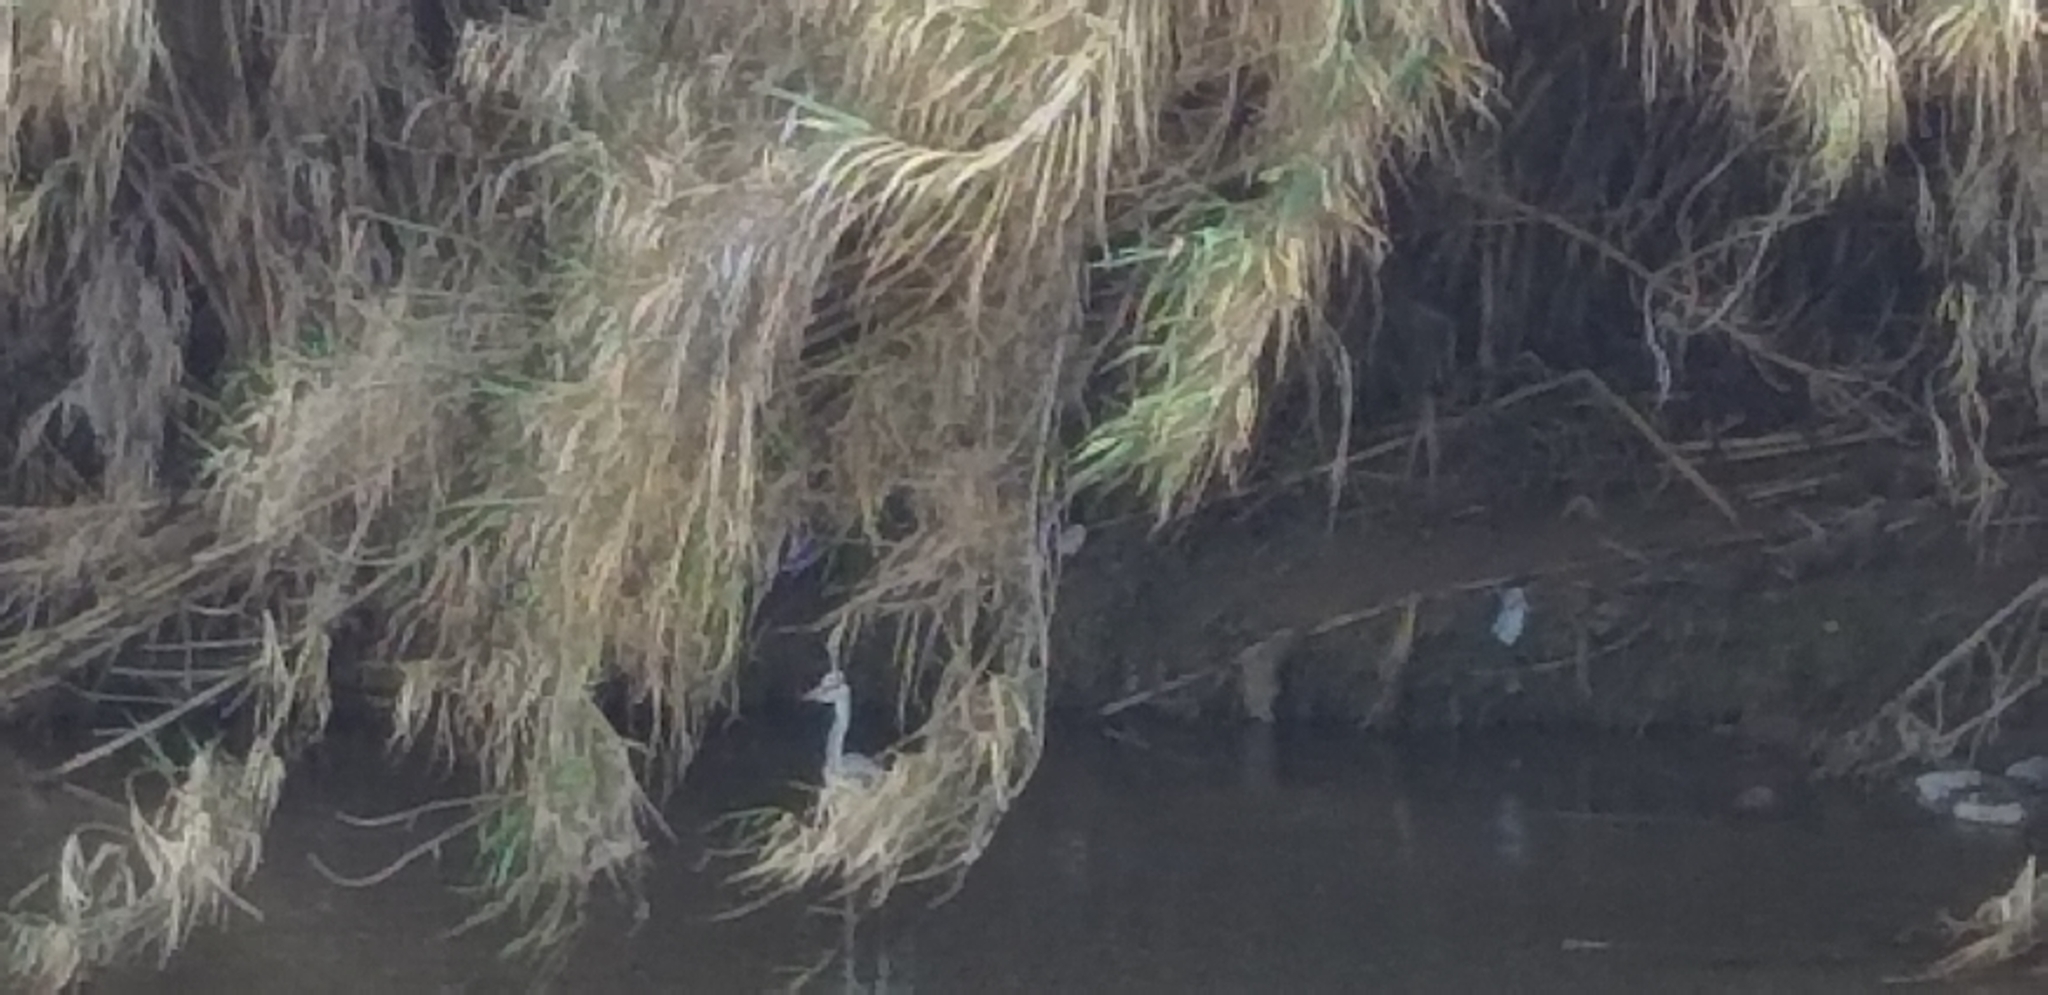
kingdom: Animalia
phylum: Chordata
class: Aves
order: Pelecaniformes
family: Ardeidae
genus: Ardea
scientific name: Ardea cinerea
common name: Grey heron
